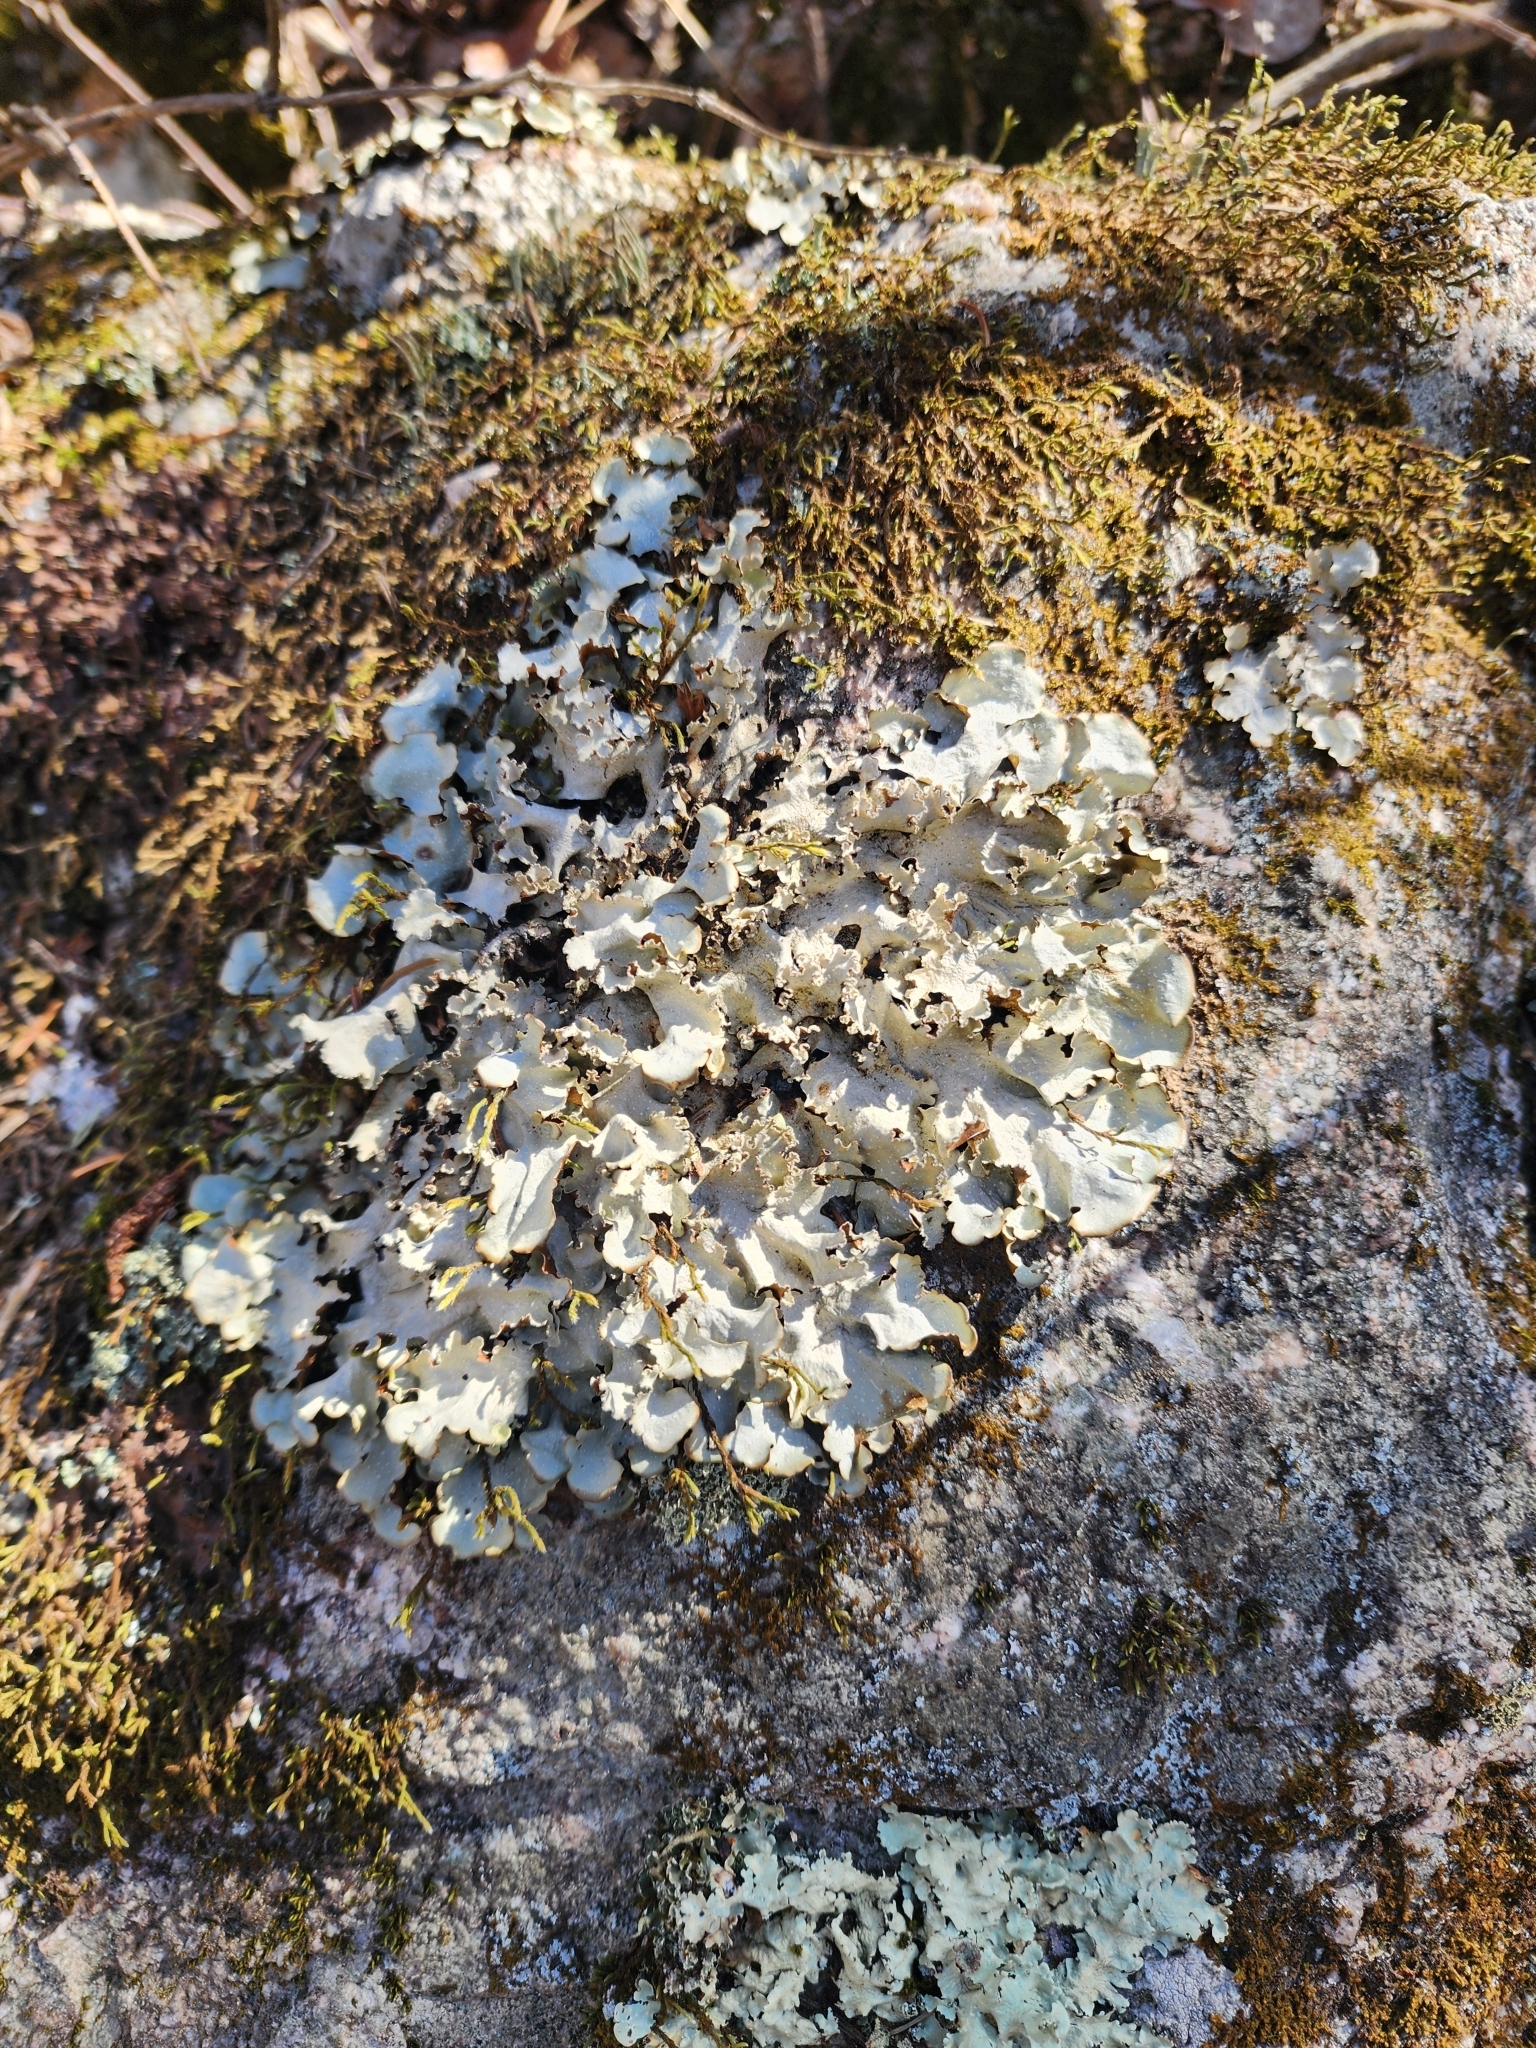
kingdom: Fungi
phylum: Ascomycota
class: Lecanoromycetes
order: Lecanorales
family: Parmeliaceae
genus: Cetrelia
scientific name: Cetrelia chicitae
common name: Chicita's sea storm lichen
